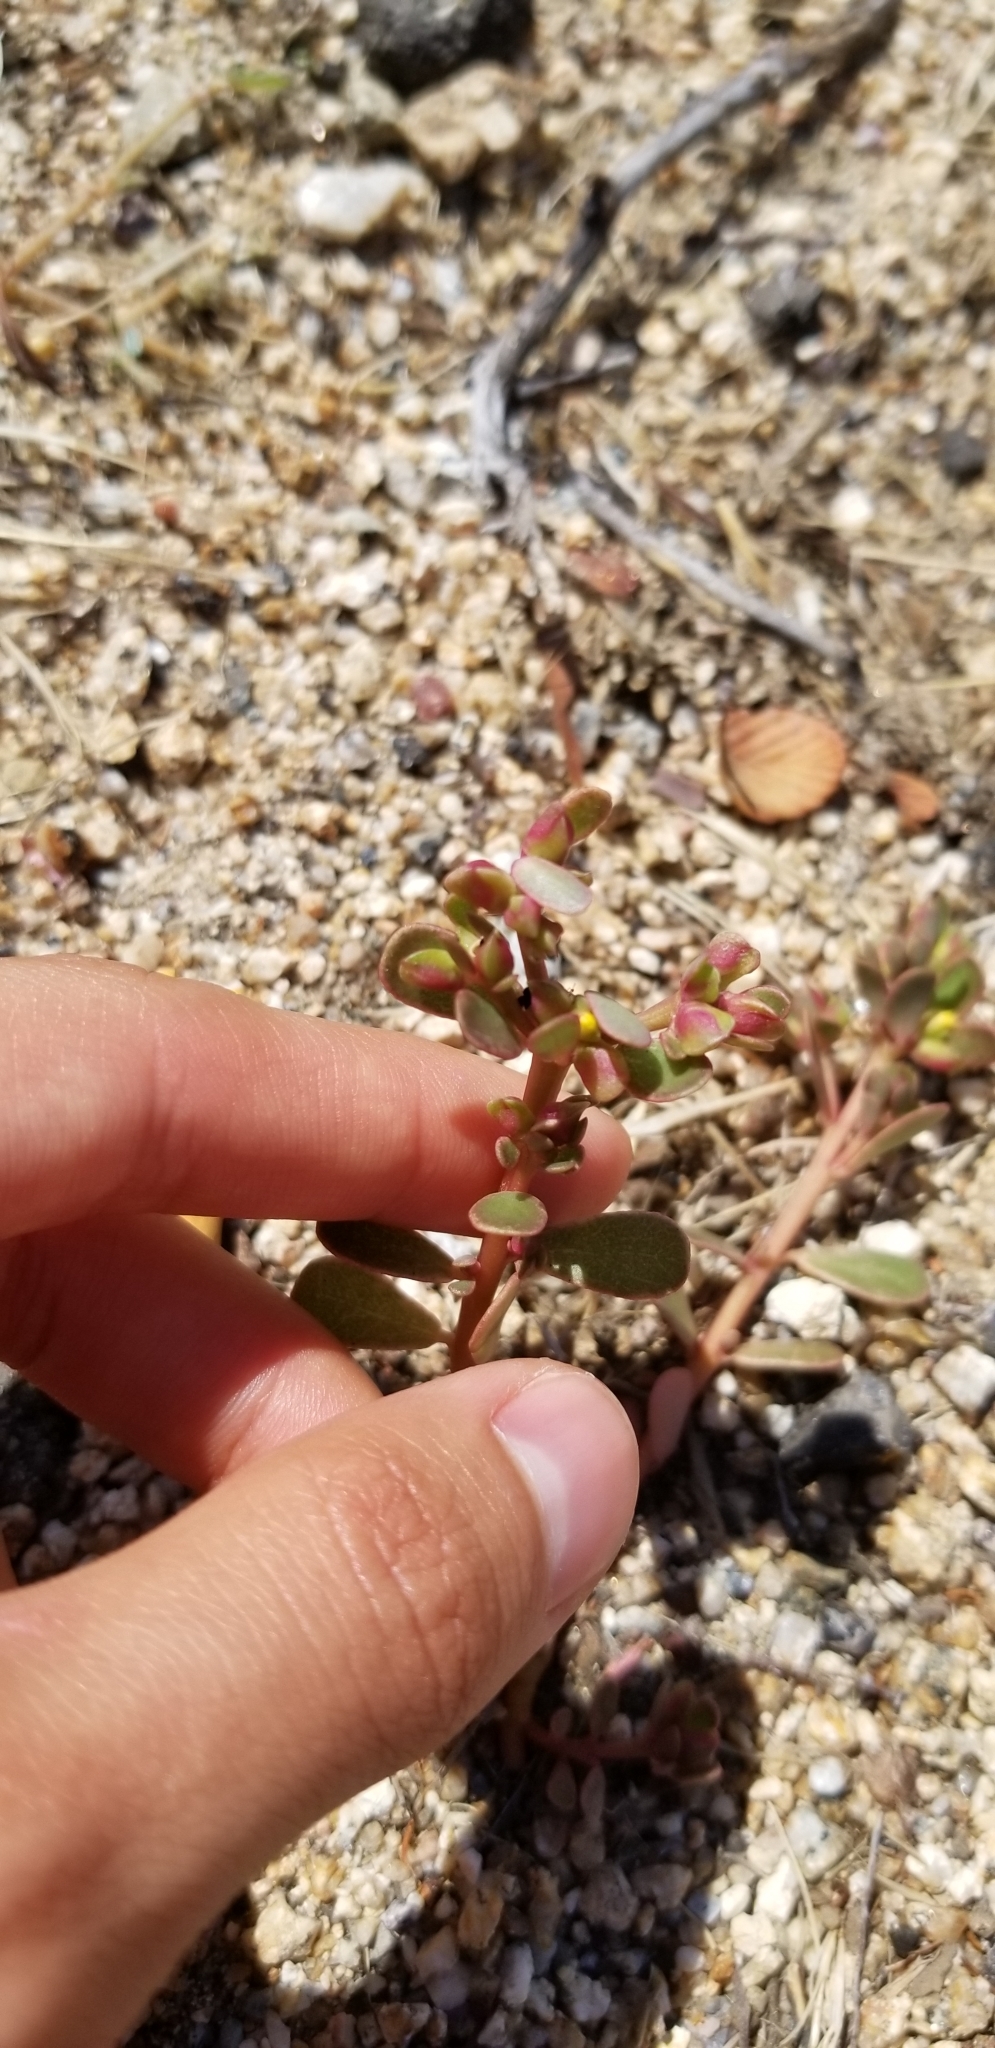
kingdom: Plantae
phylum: Tracheophyta
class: Magnoliopsida
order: Caryophyllales
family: Portulacaceae
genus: Portulaca
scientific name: Portulaca oleracea
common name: Common purslane
